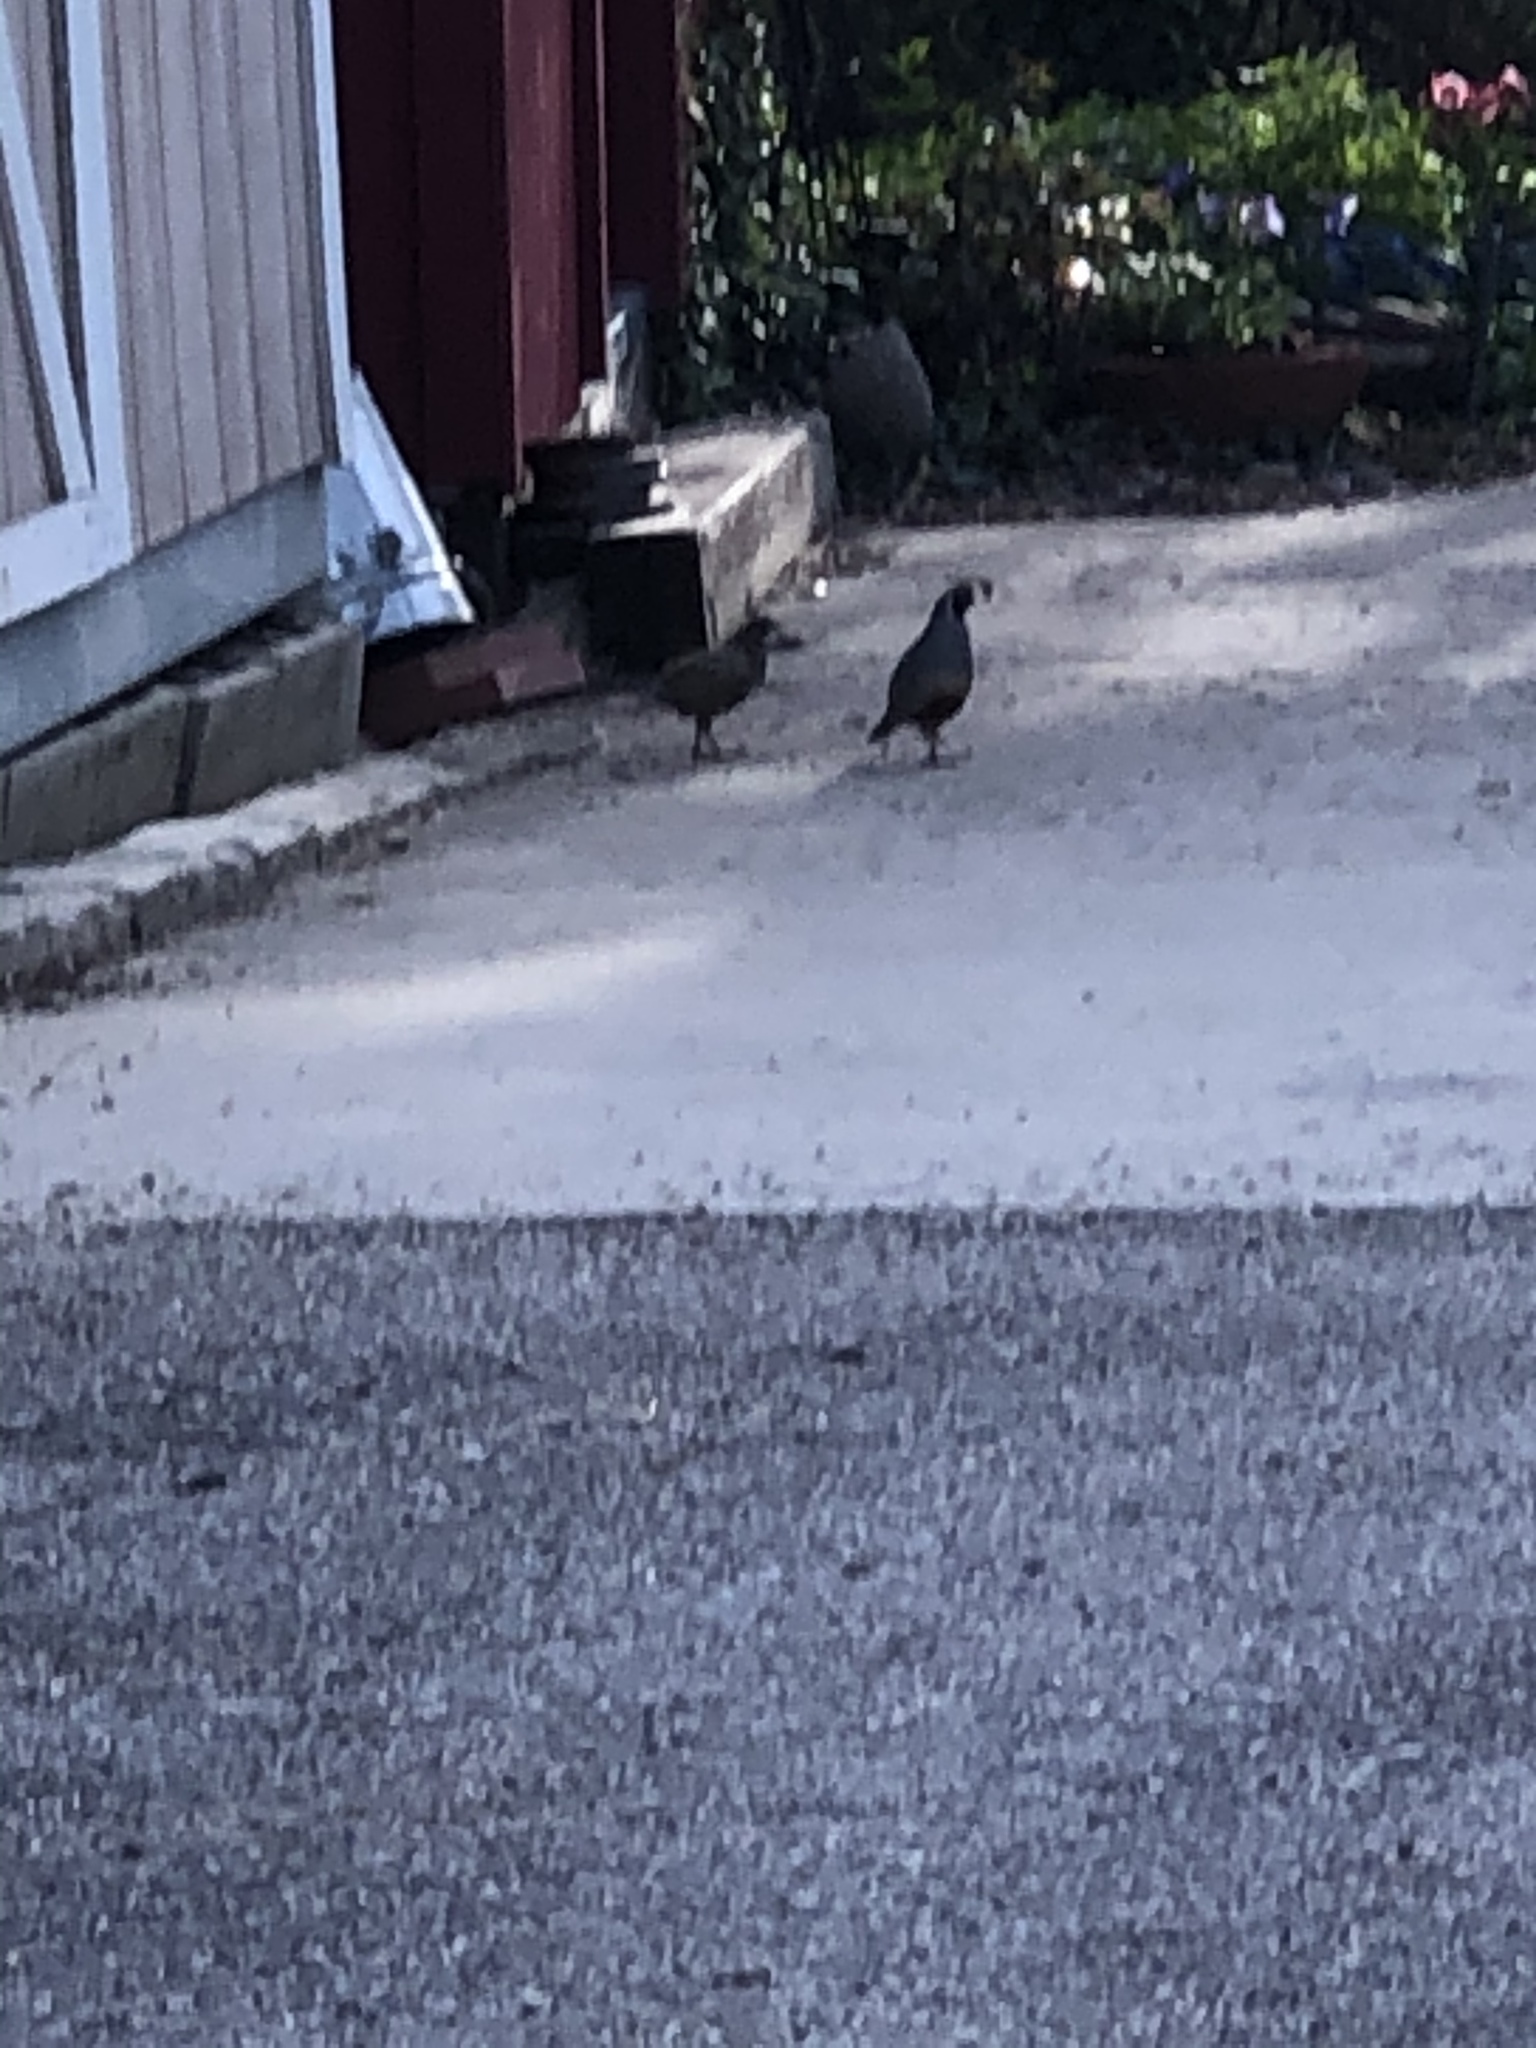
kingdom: Animalia
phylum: Chordata
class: Aves
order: Galliformes
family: Odontophoridae
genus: Callipepla
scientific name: Callipepla californica
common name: California quail
